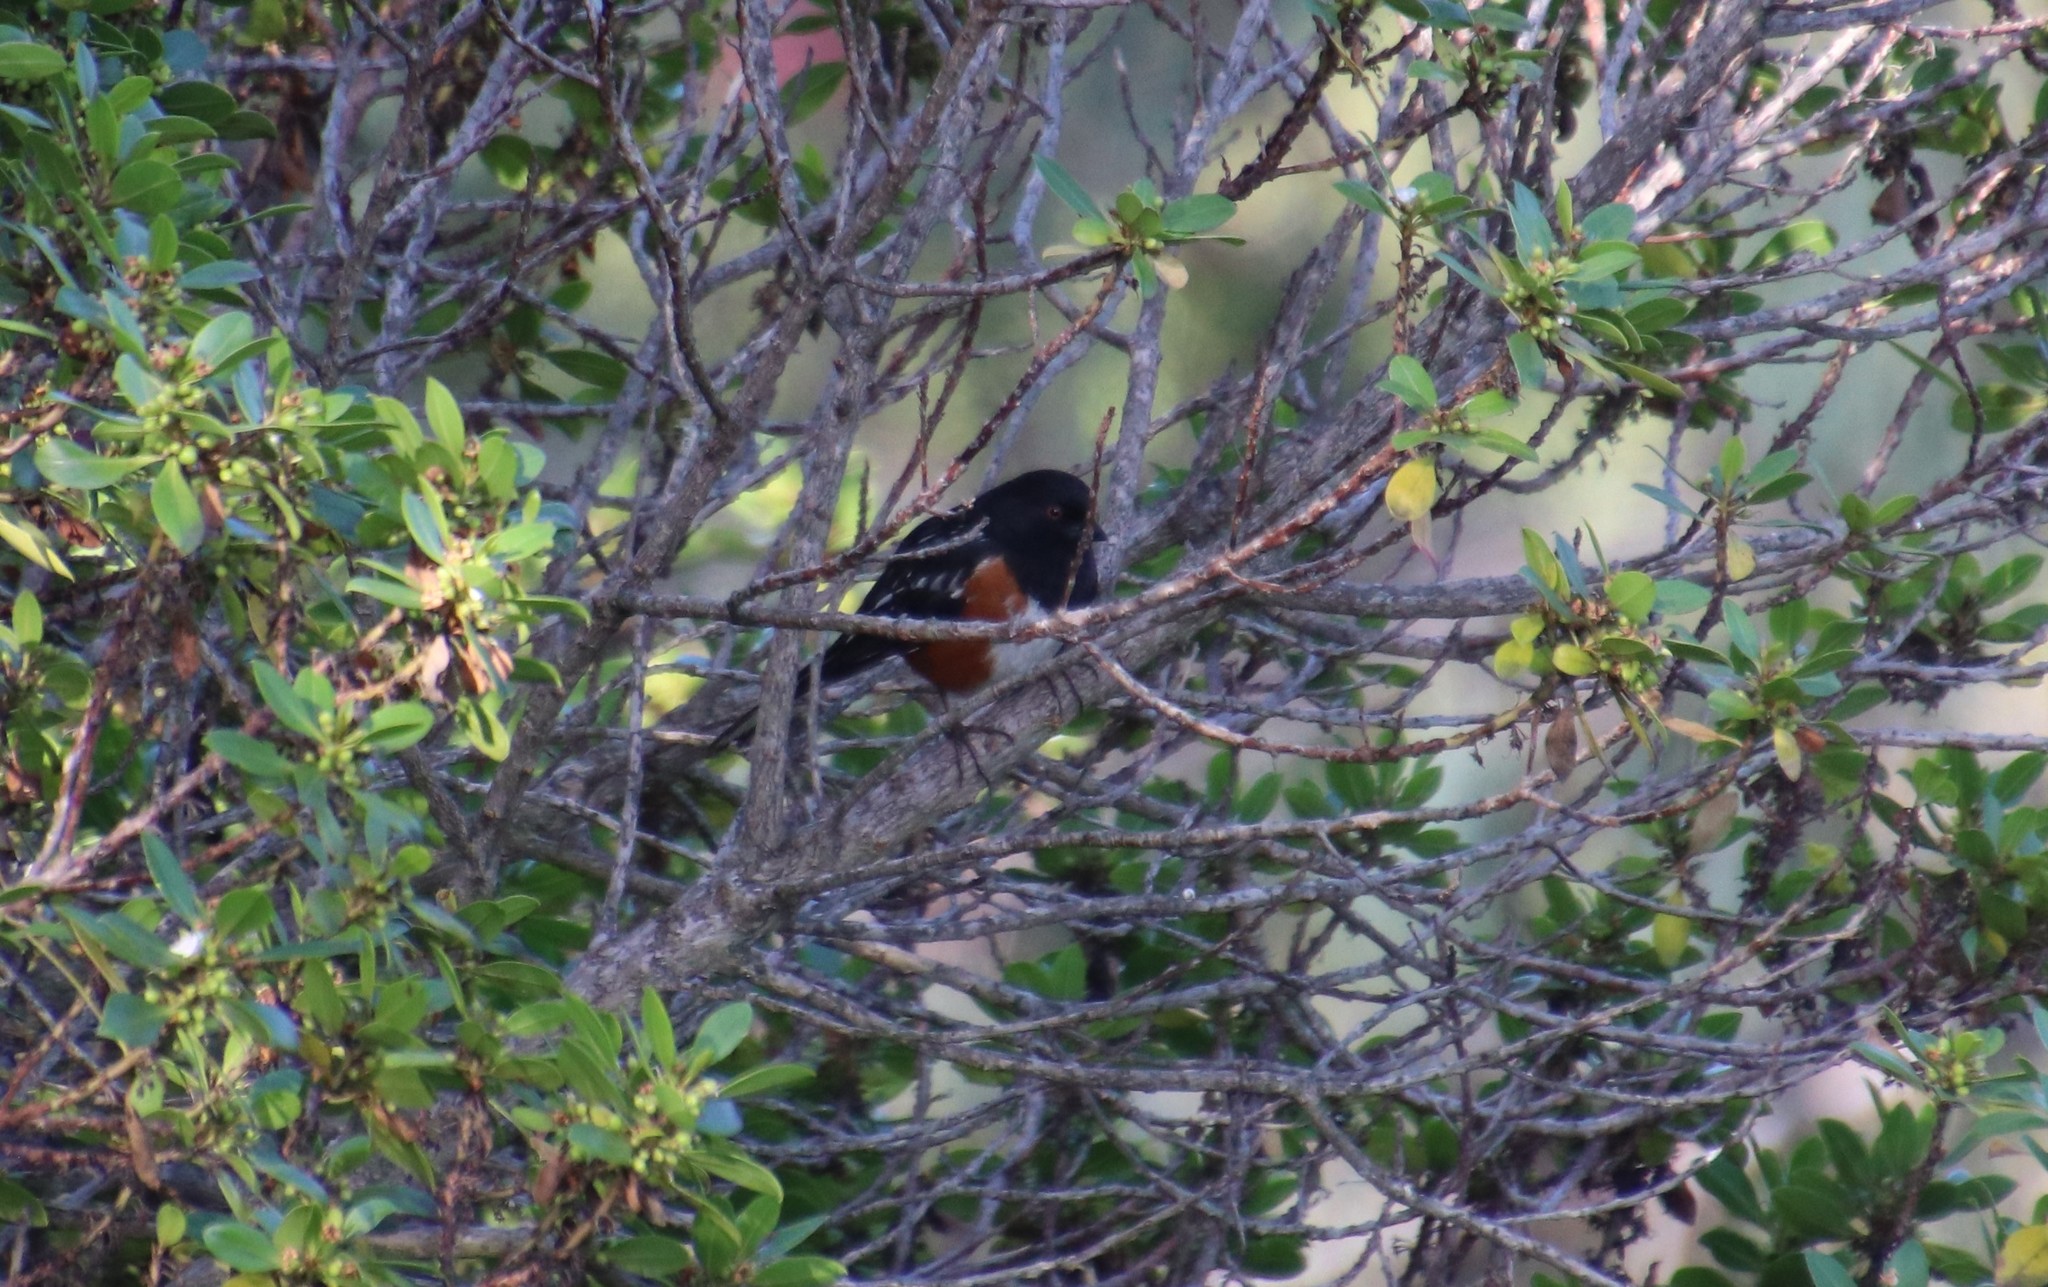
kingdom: Animalia
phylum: Chordata
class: Aves
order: Passeriformes
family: Passerellidae
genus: Pipilo
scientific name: Pipilo maculatus
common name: Spotted towhee
